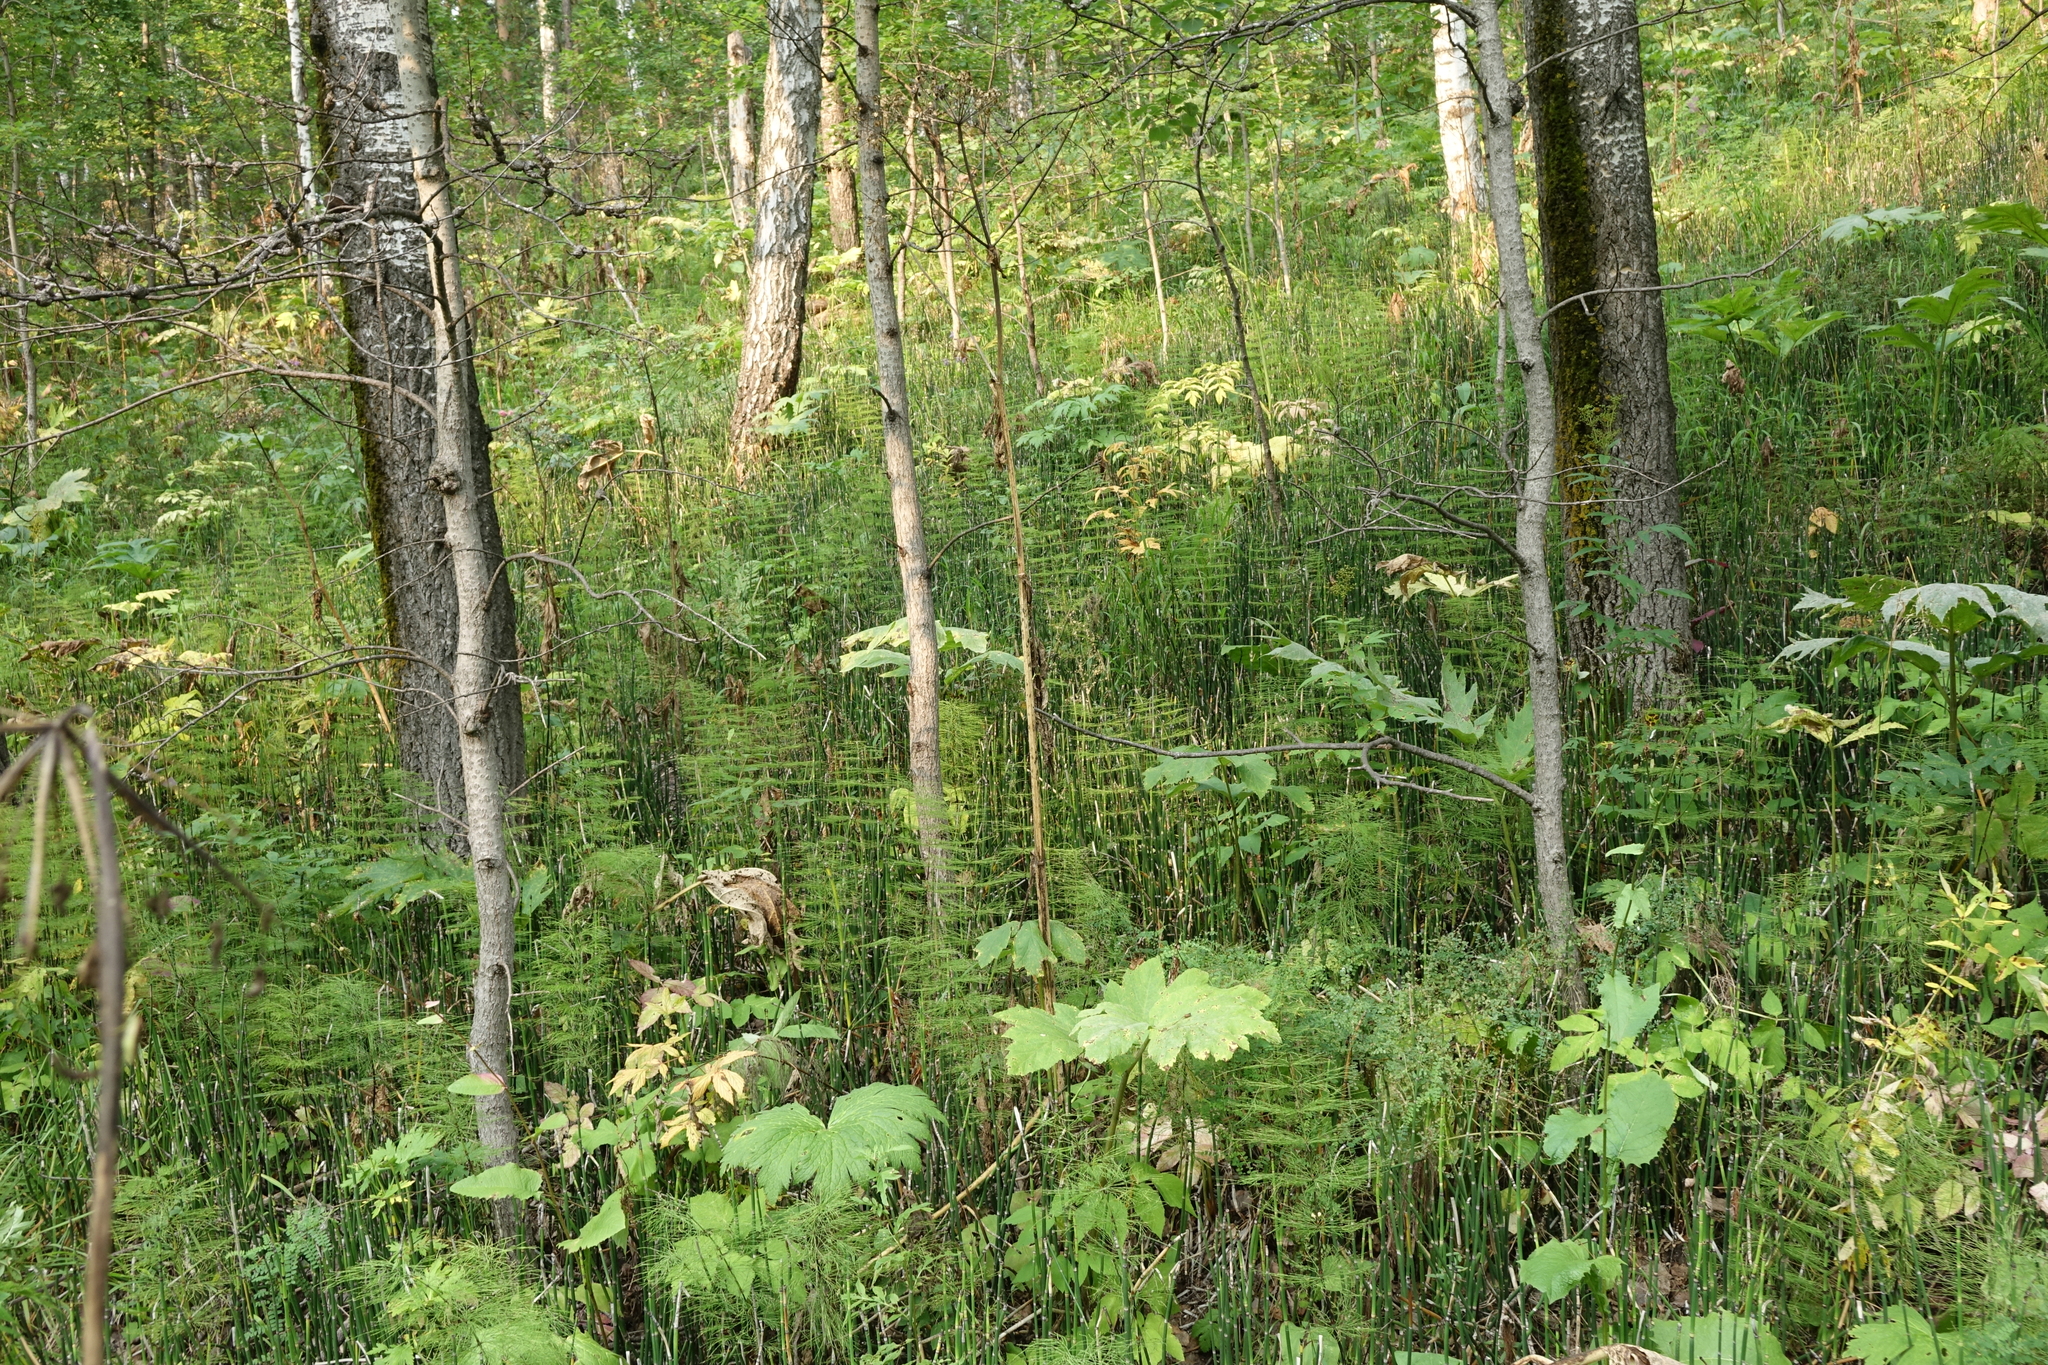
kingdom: Plantae
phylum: Tracheophyta
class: Polypodiopsida
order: Equisetales
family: Equisetaceae
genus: Equisetum
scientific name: Equisetum sylvaticum
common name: Wood horsetail
